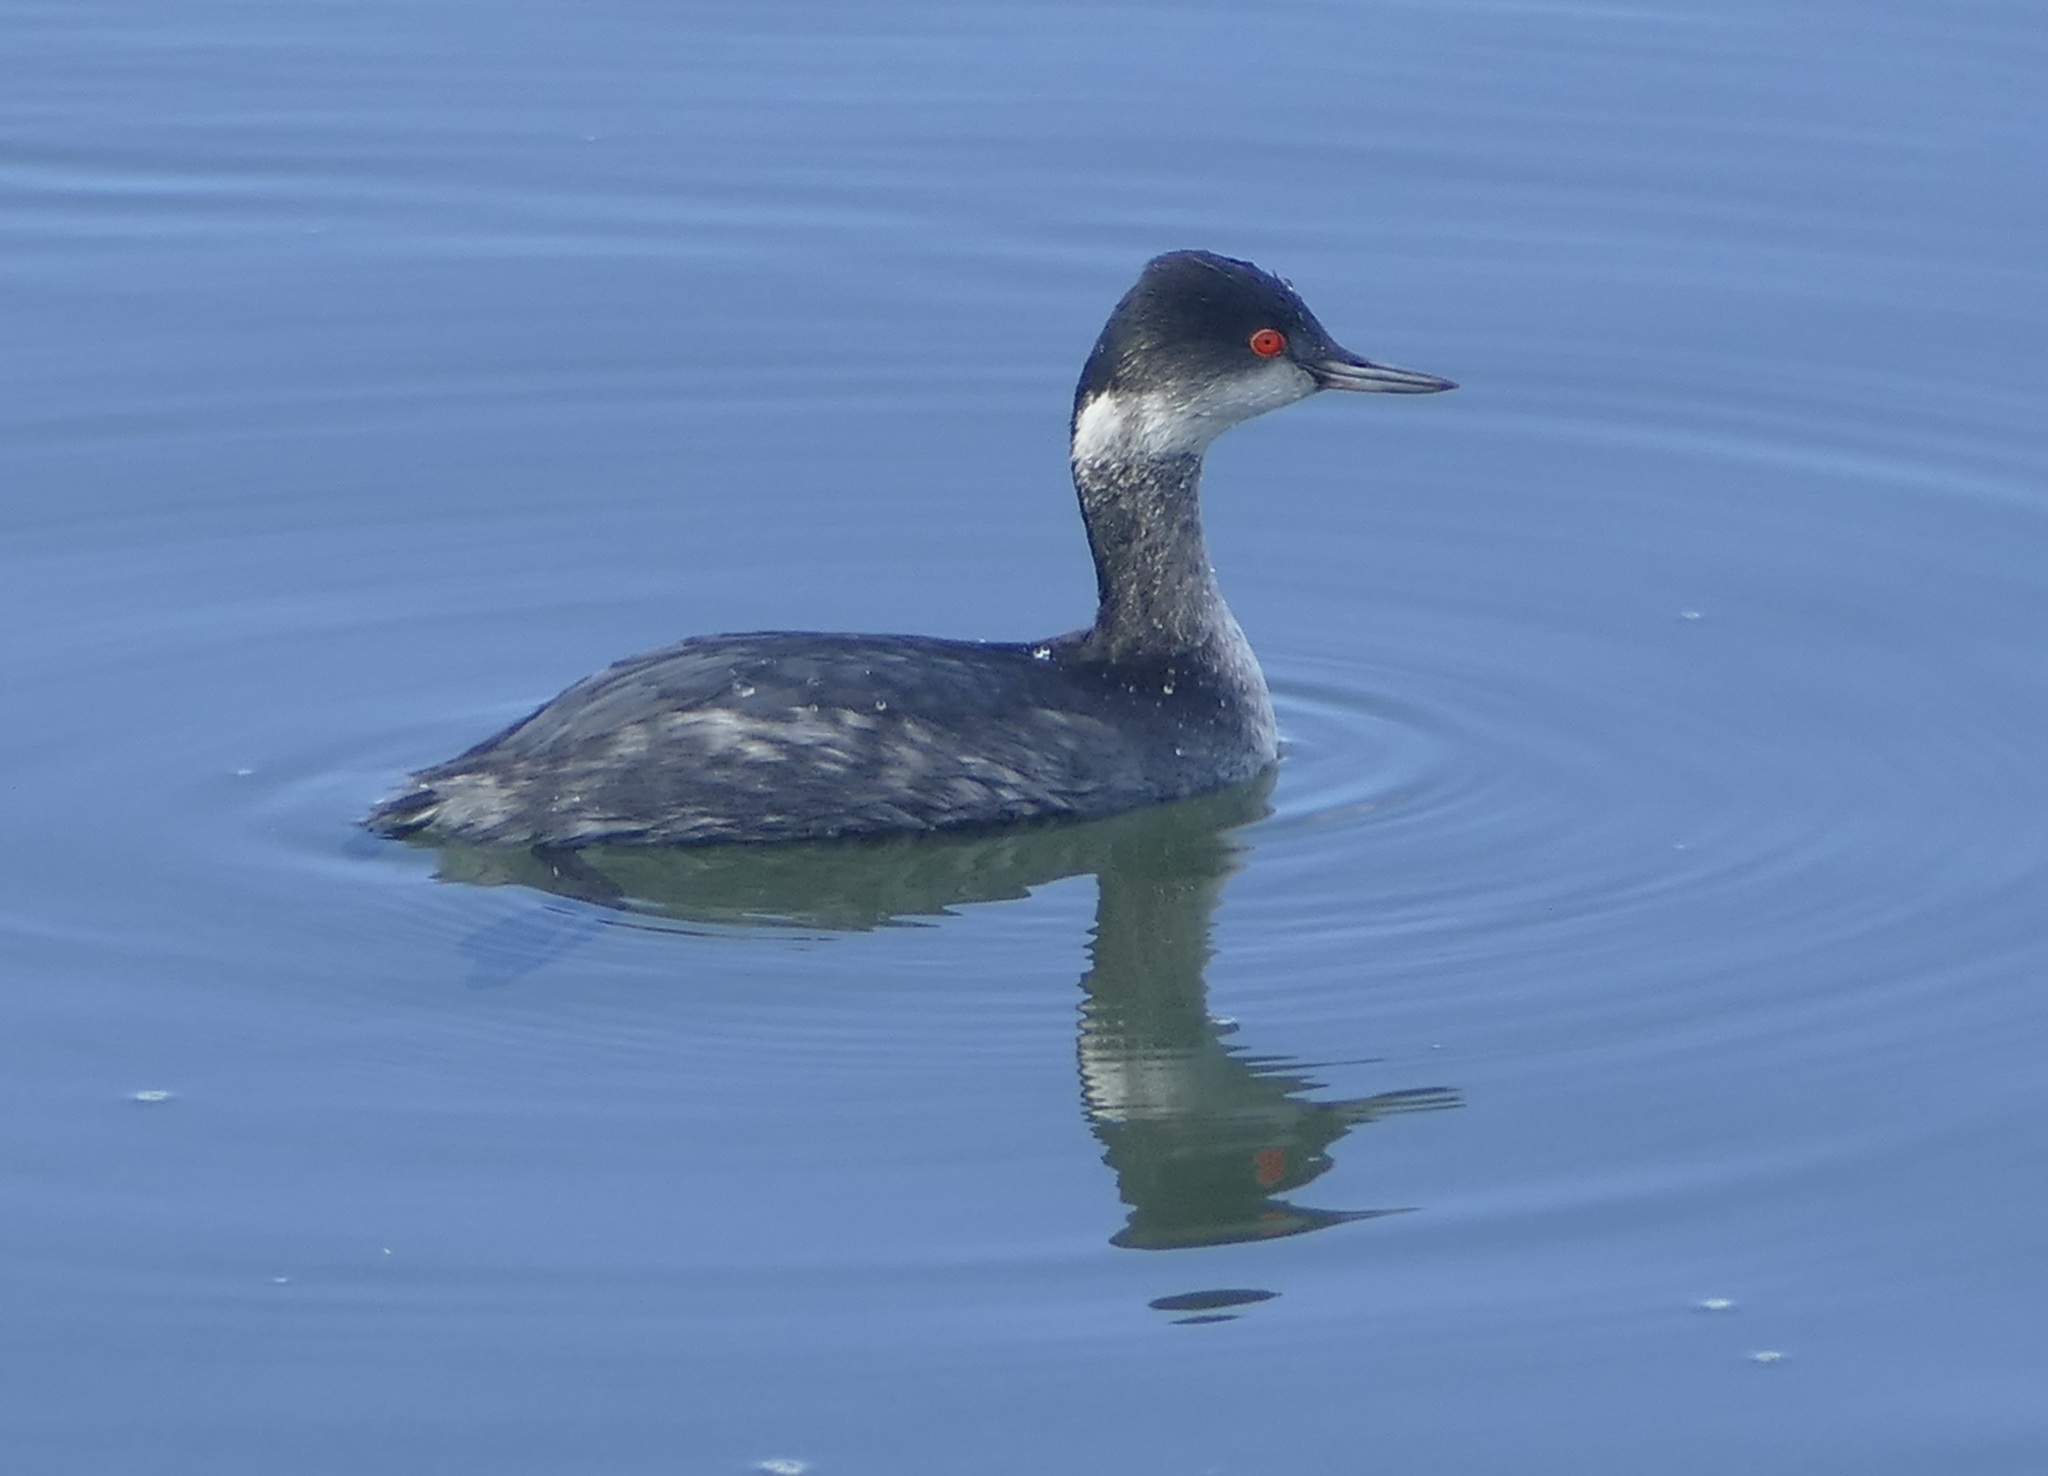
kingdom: Animalia
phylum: Chordata
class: Aves
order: Podicipediformes
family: Podicipedidae
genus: Podiceps
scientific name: Podiceps nigricollis
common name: Black-necked grebe
